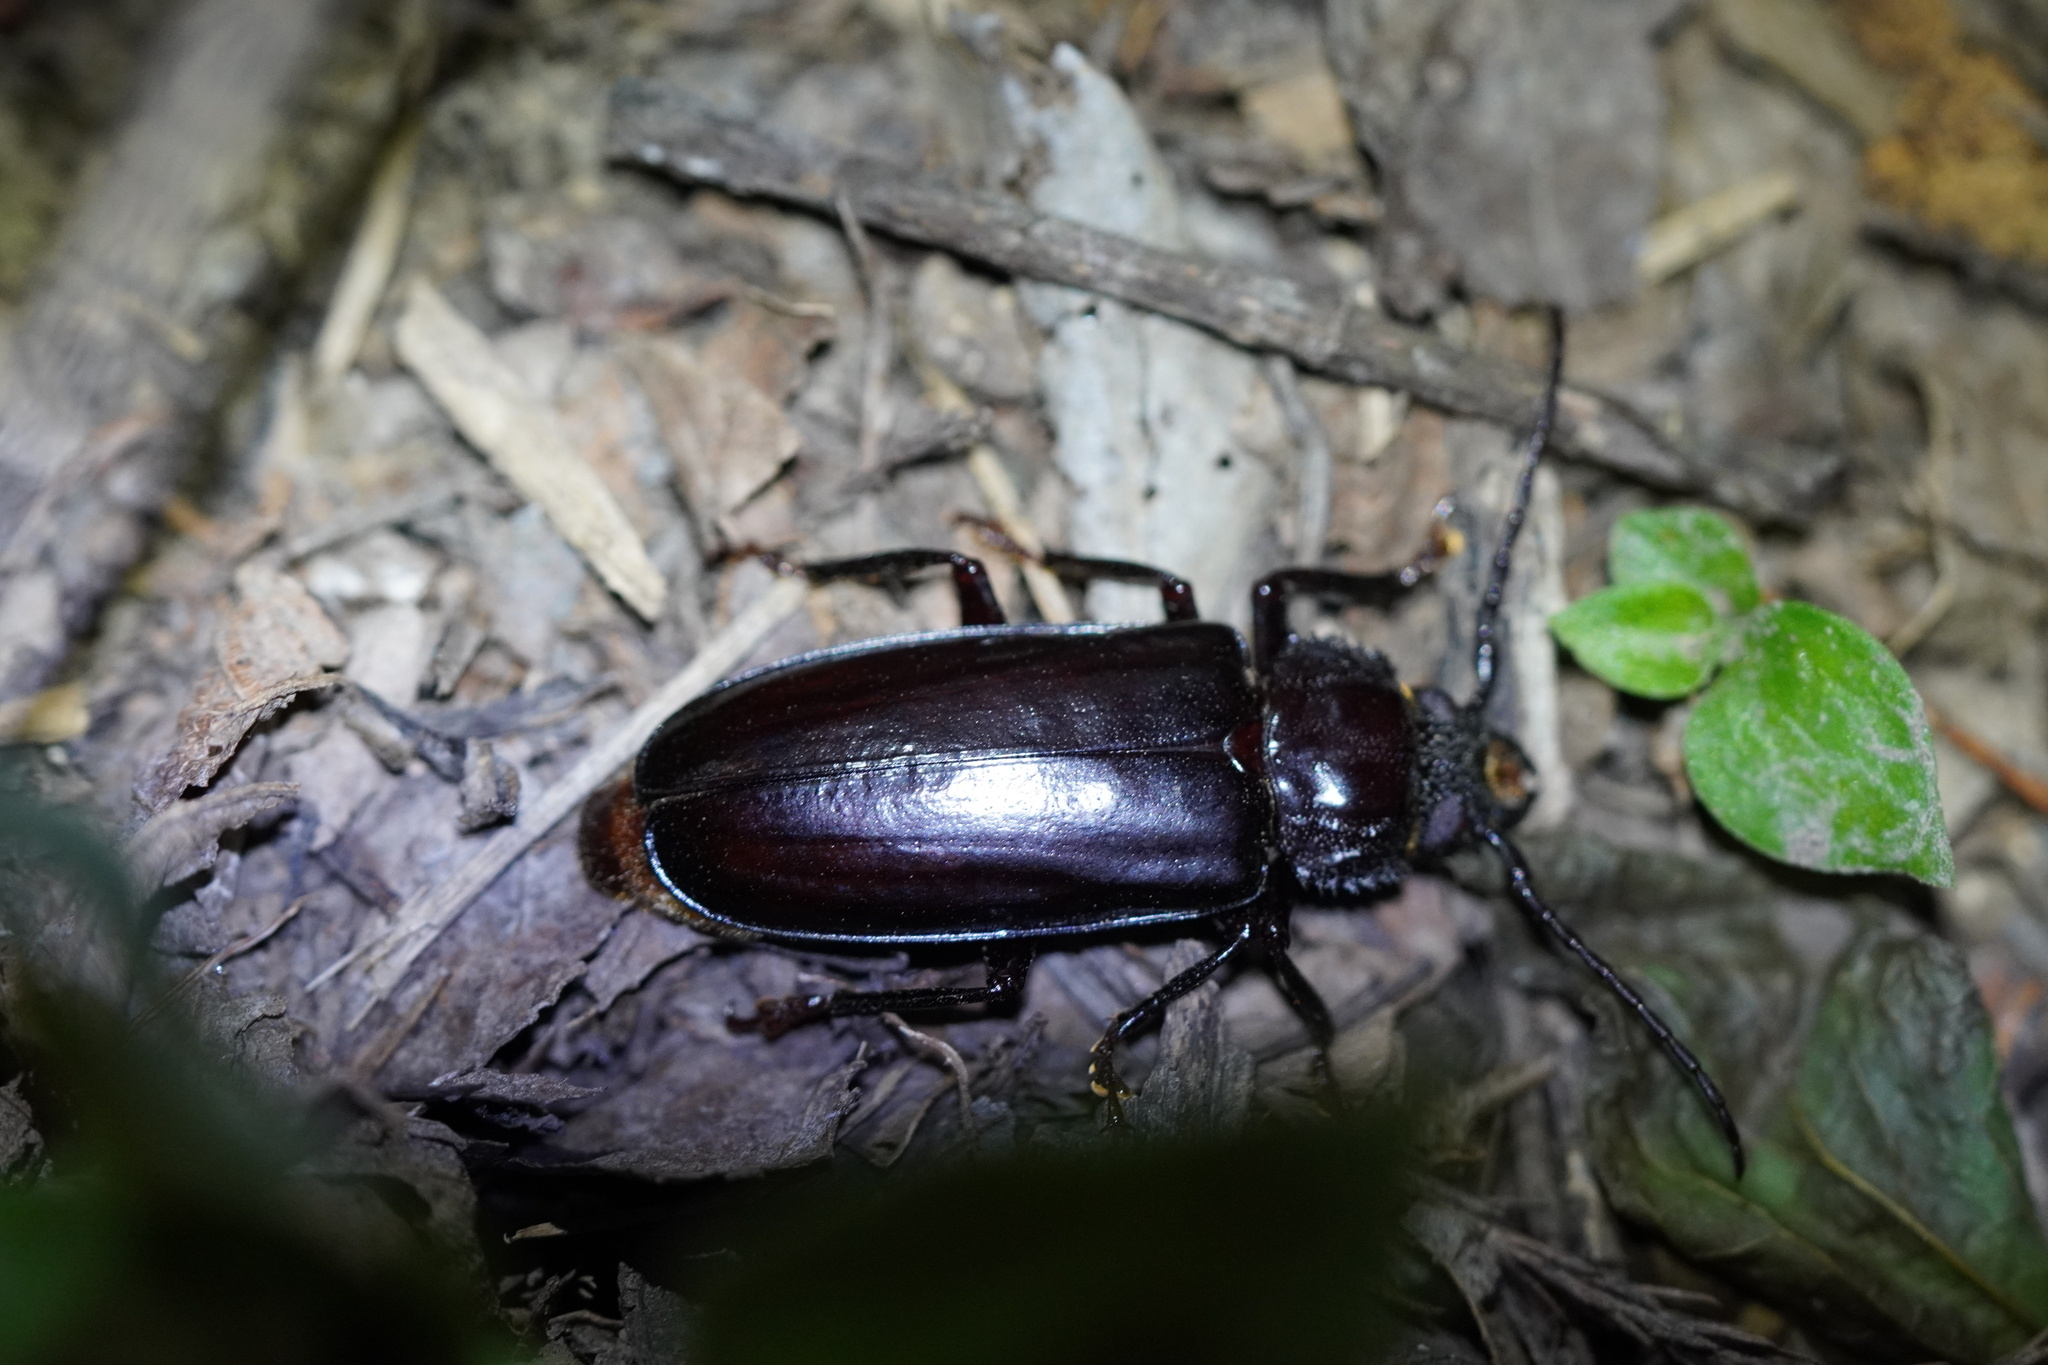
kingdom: Animalia
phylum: Arthropoda
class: Insecta
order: Coleoptera
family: Cerambycidae
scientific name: Cerambycidae
